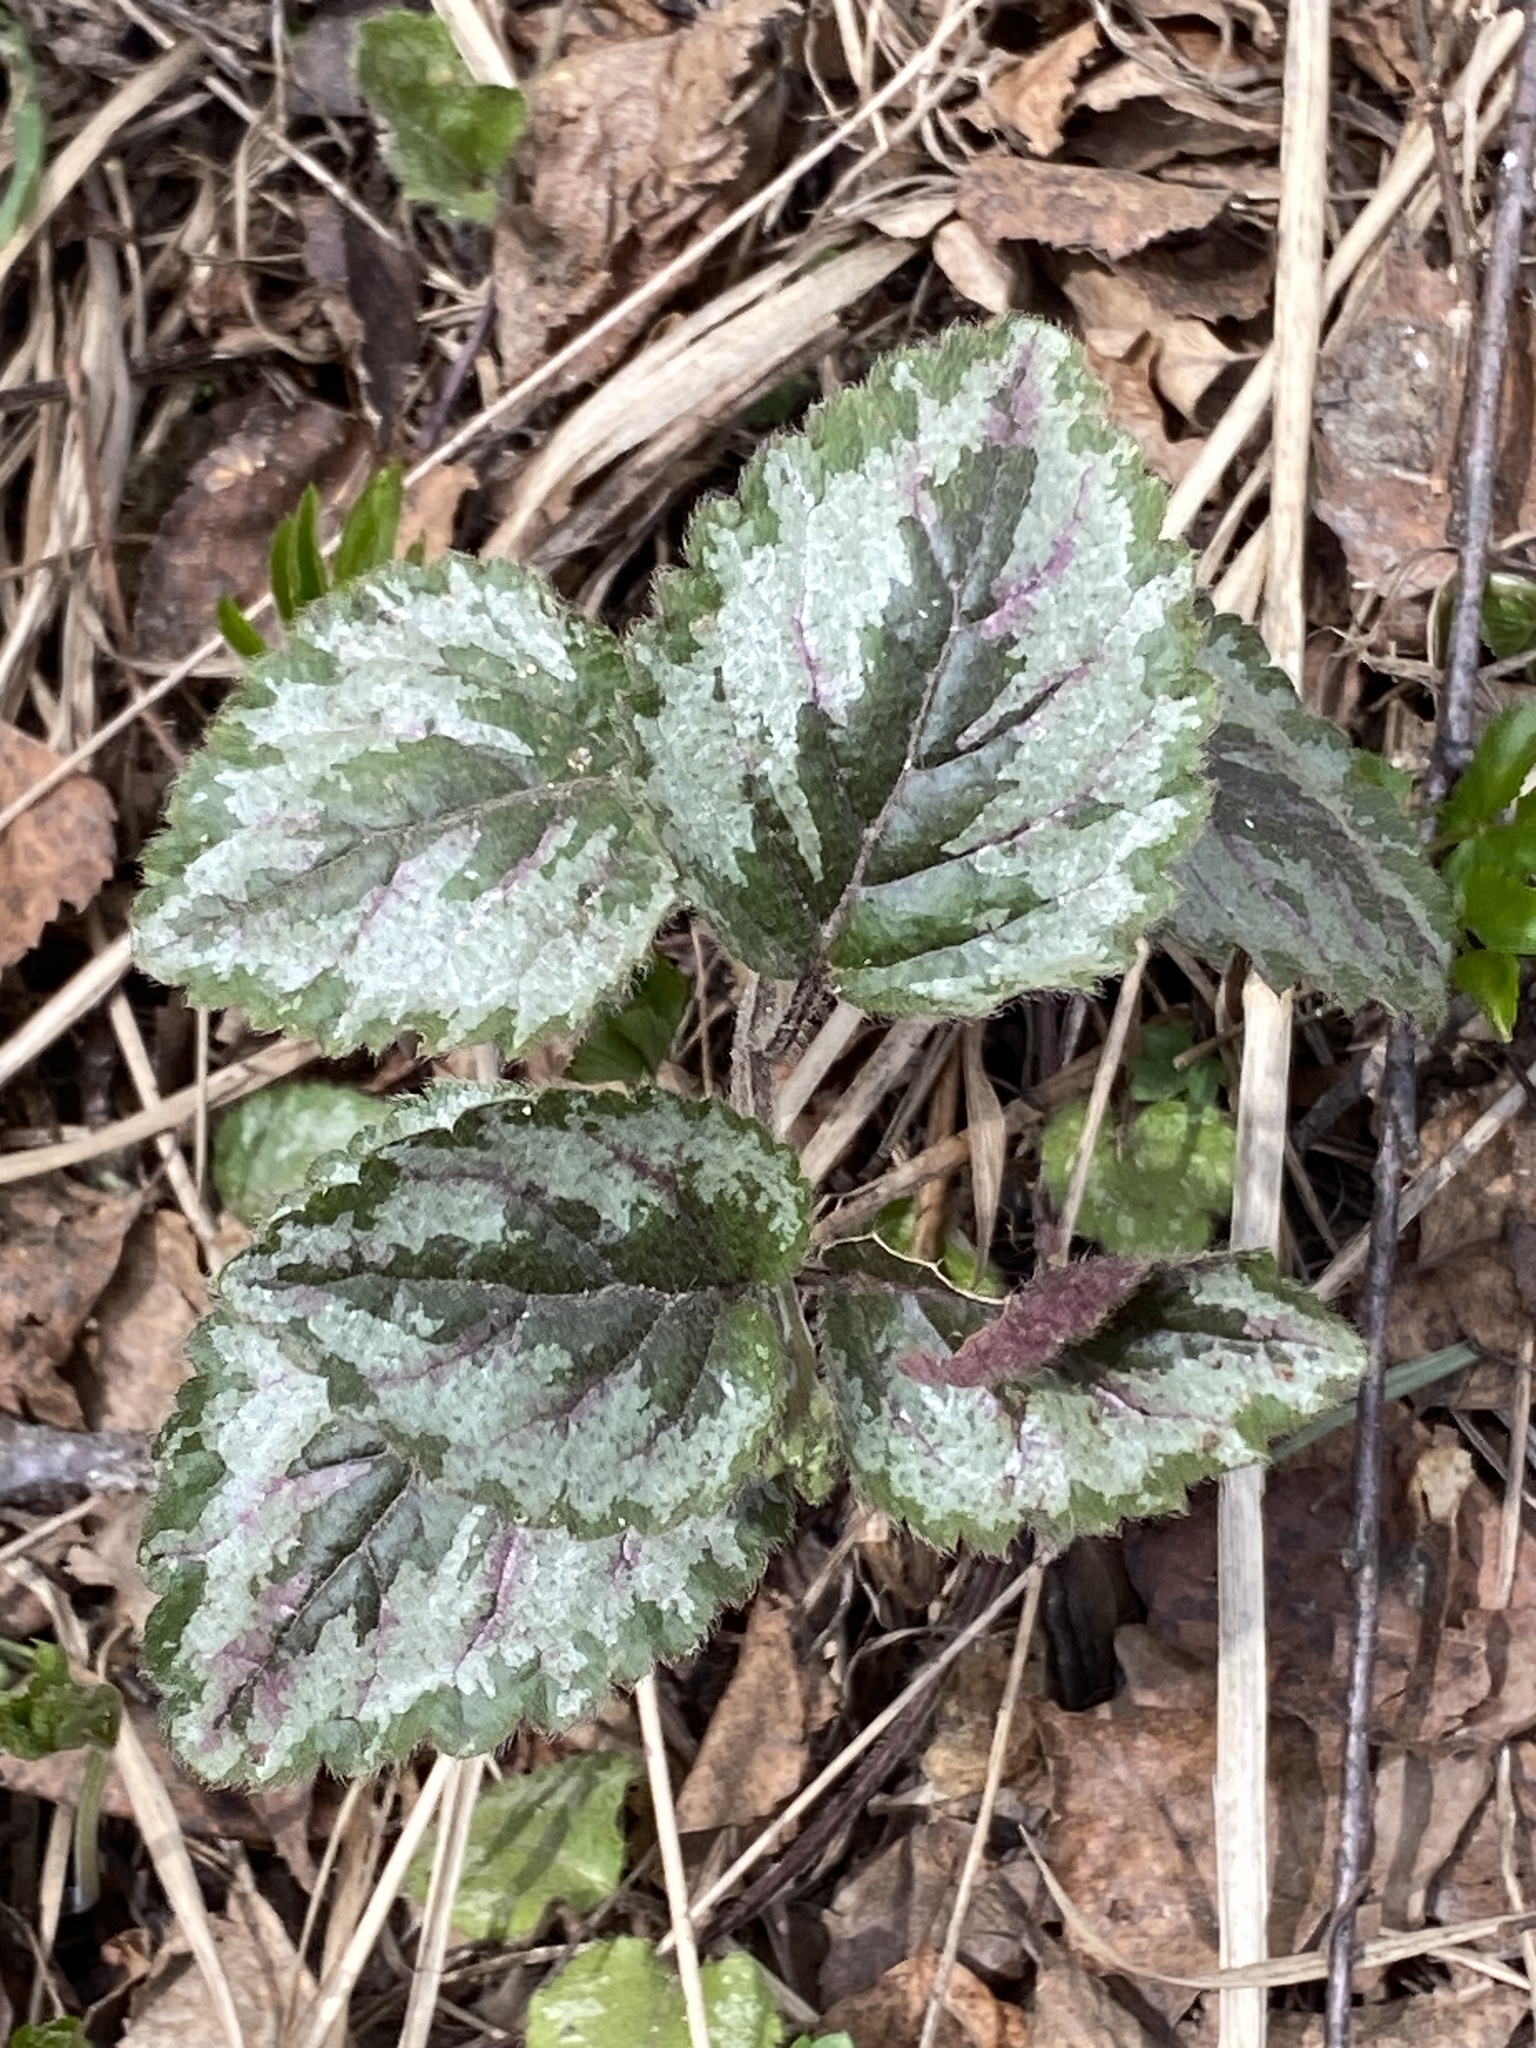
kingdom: Plantae
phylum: Tracheophyta
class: Magnoliopsida
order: Lamiales
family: Lamiaceae
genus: Lamium
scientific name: Lamium galeobdolon
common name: Yellow archangel
